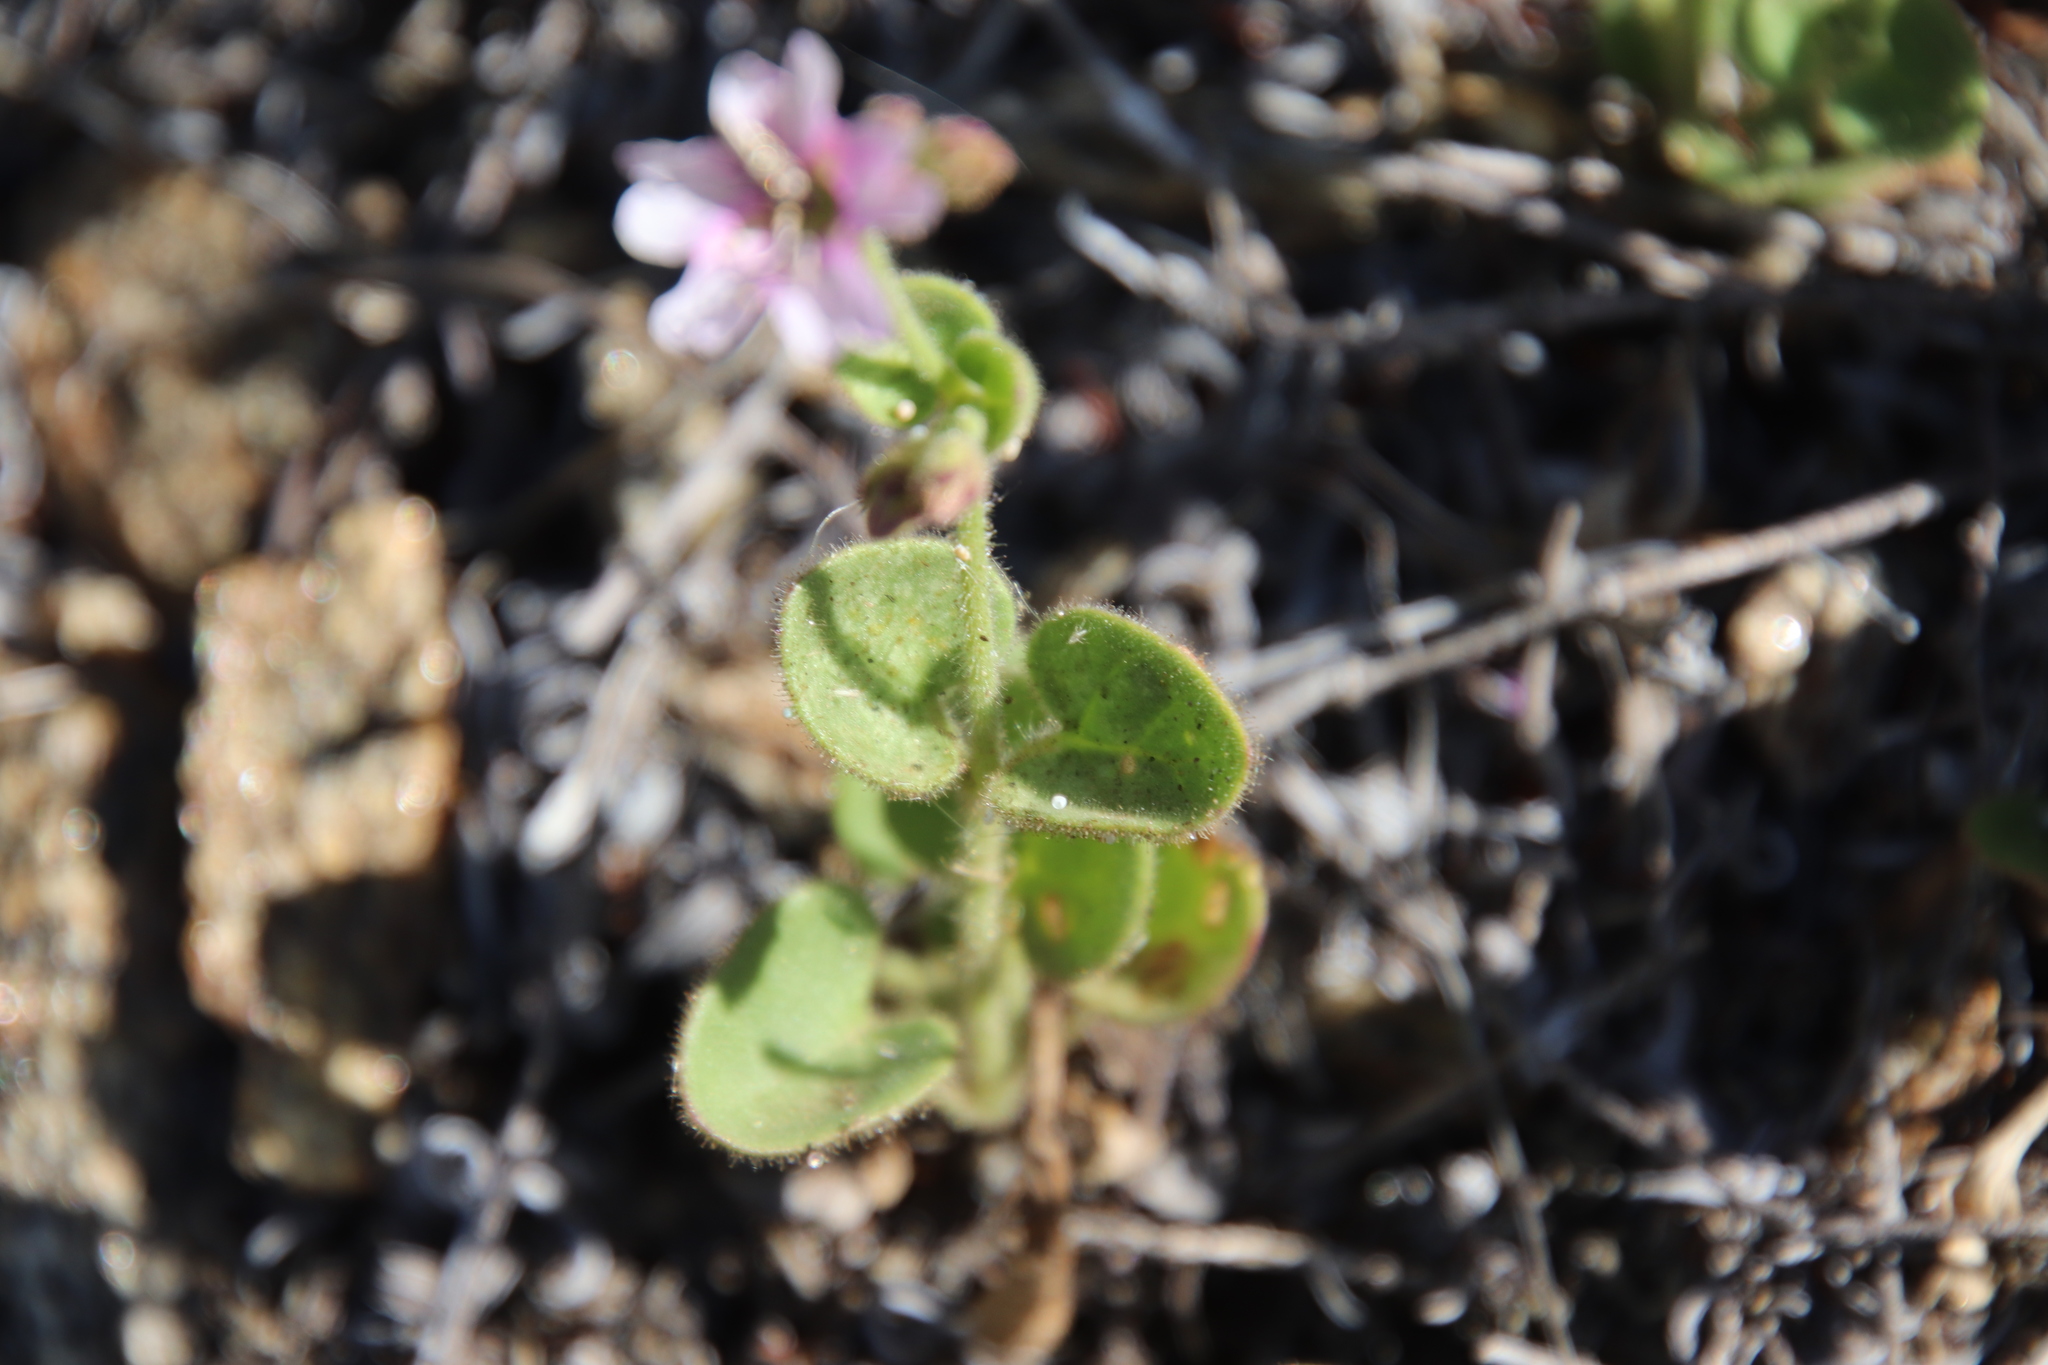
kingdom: Plantae
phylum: Tracheophyta
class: Magnoliopsida
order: Caryophyllales
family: Nyctaginaceae
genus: Mirabilis
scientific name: Mirabilis laevis
